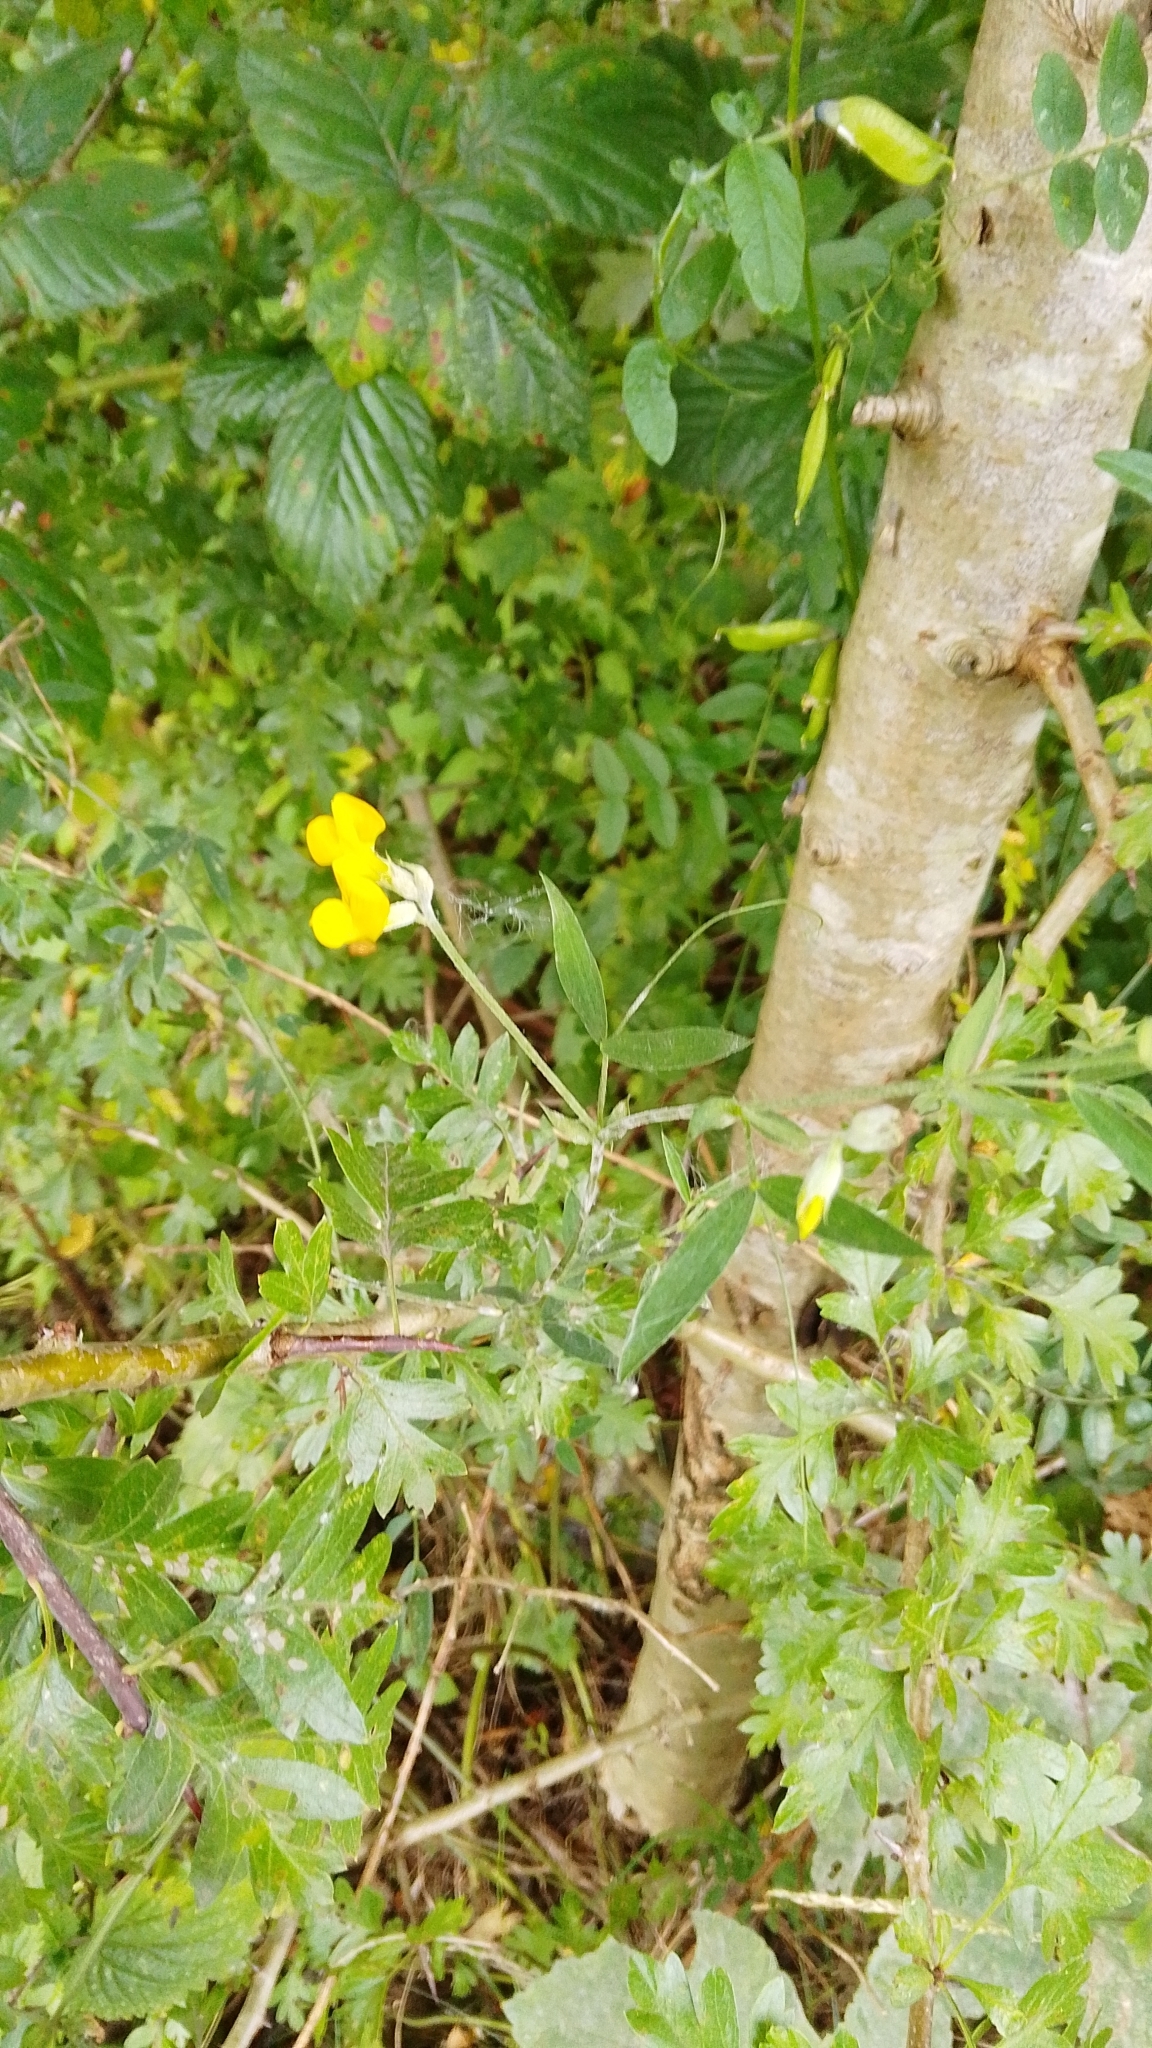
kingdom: Plantae
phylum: Tracheophyta
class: Magnoliopsida
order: Fabales
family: Fabaceae
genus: Lathyrus
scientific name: Lathyrus pratensis
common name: Meadow vetchling
